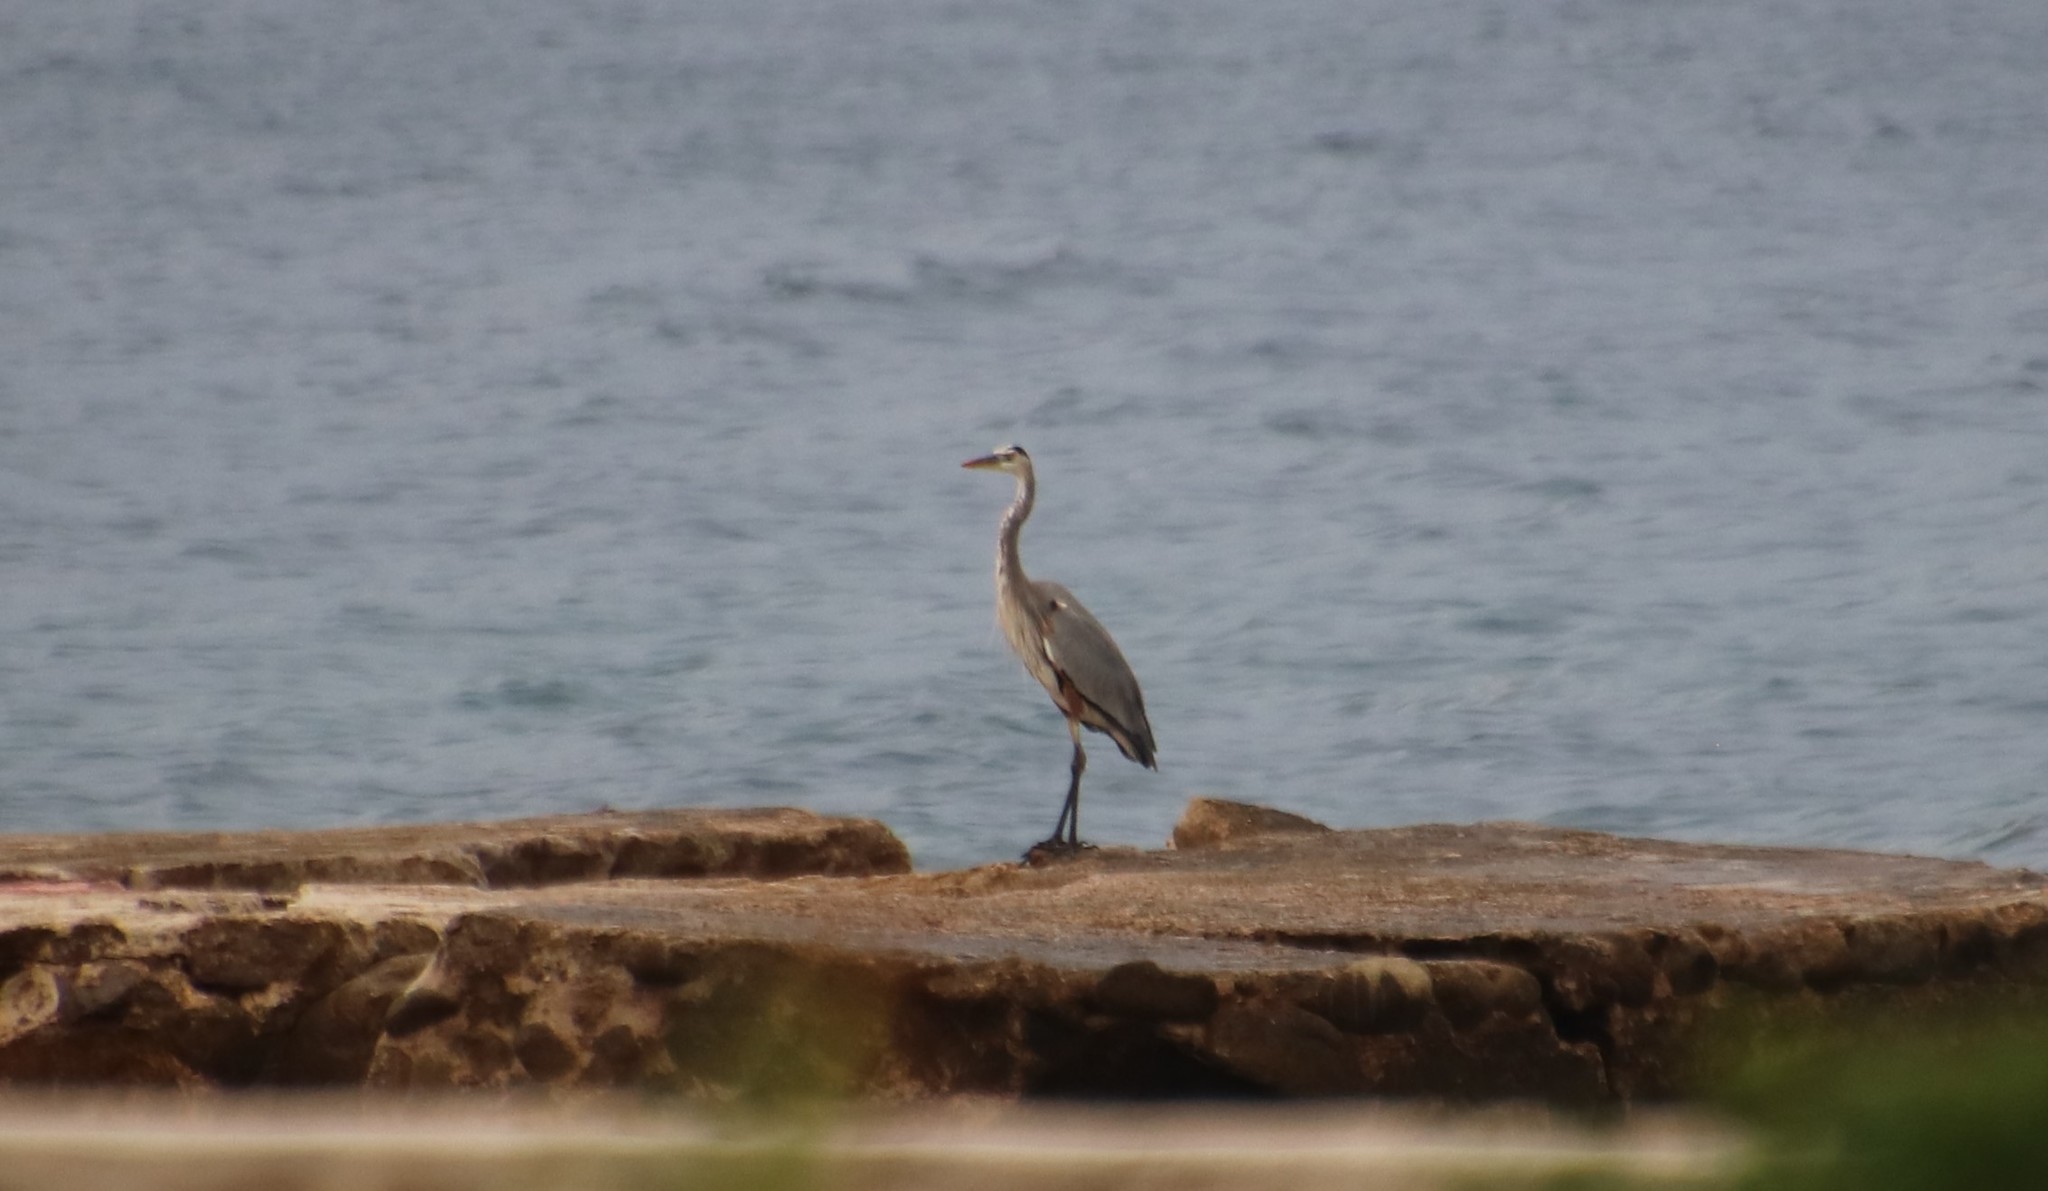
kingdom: Animalia
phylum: Chordata
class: Aves
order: Pelecaniformes
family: Ardeidae
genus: Ardea
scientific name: Ardea herodias
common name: Great blue heron
